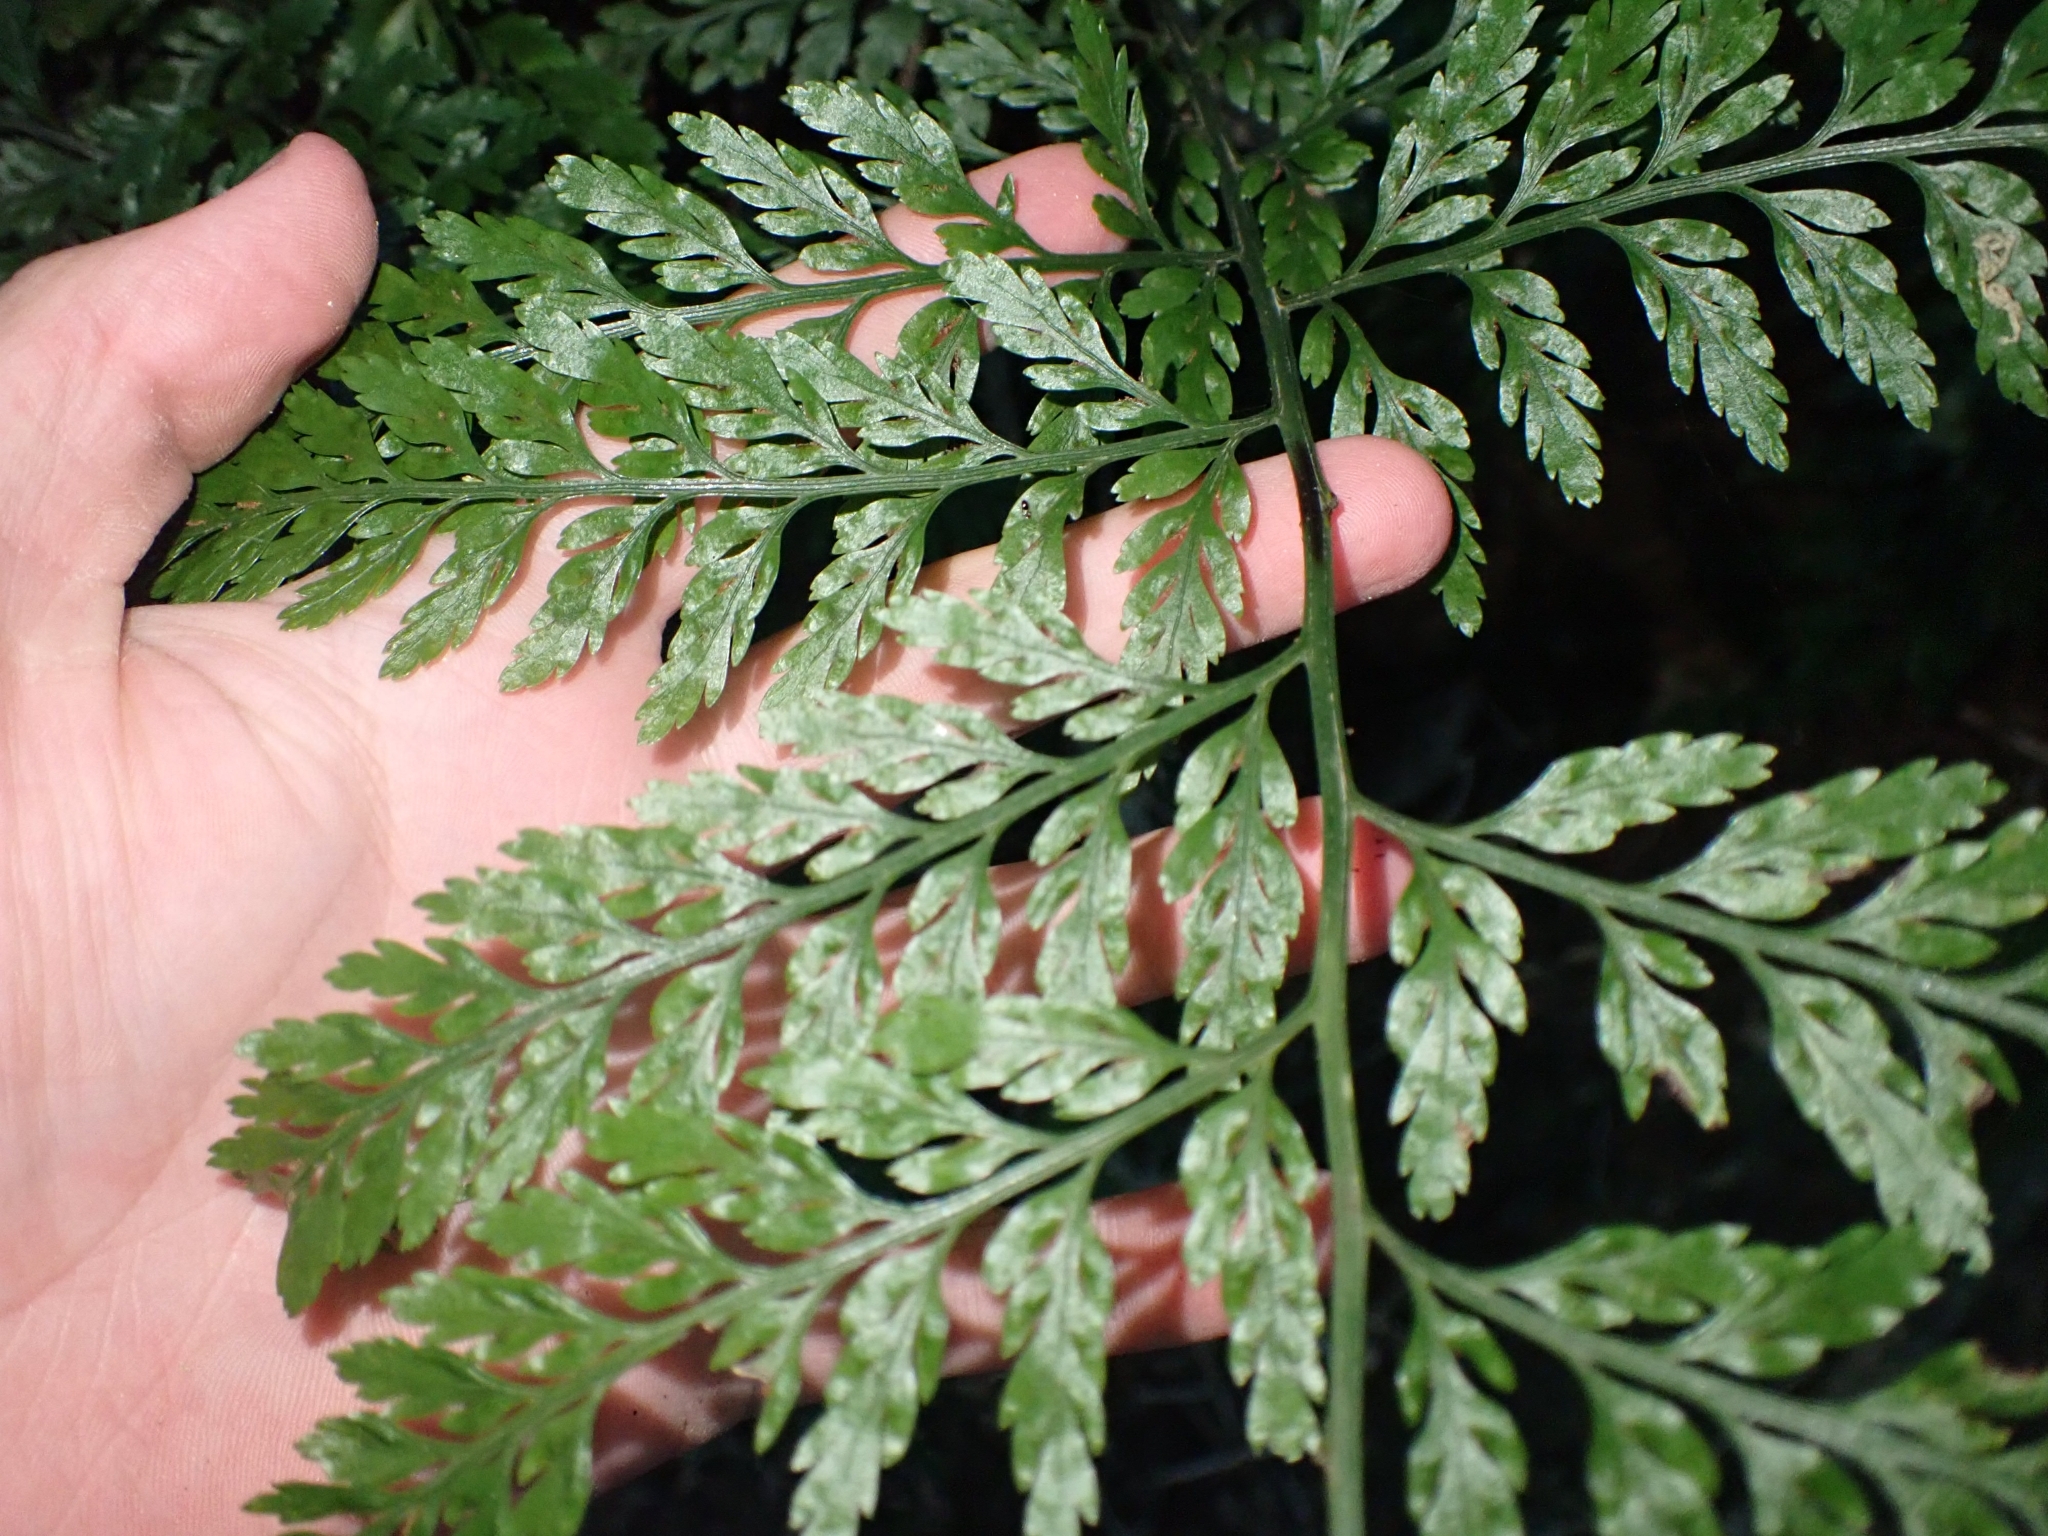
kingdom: Plantae
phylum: Tracheophyta
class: Polypodiopsida
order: Polypodiales
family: Aspleniaceae
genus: Asplenium
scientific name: Asplenium
